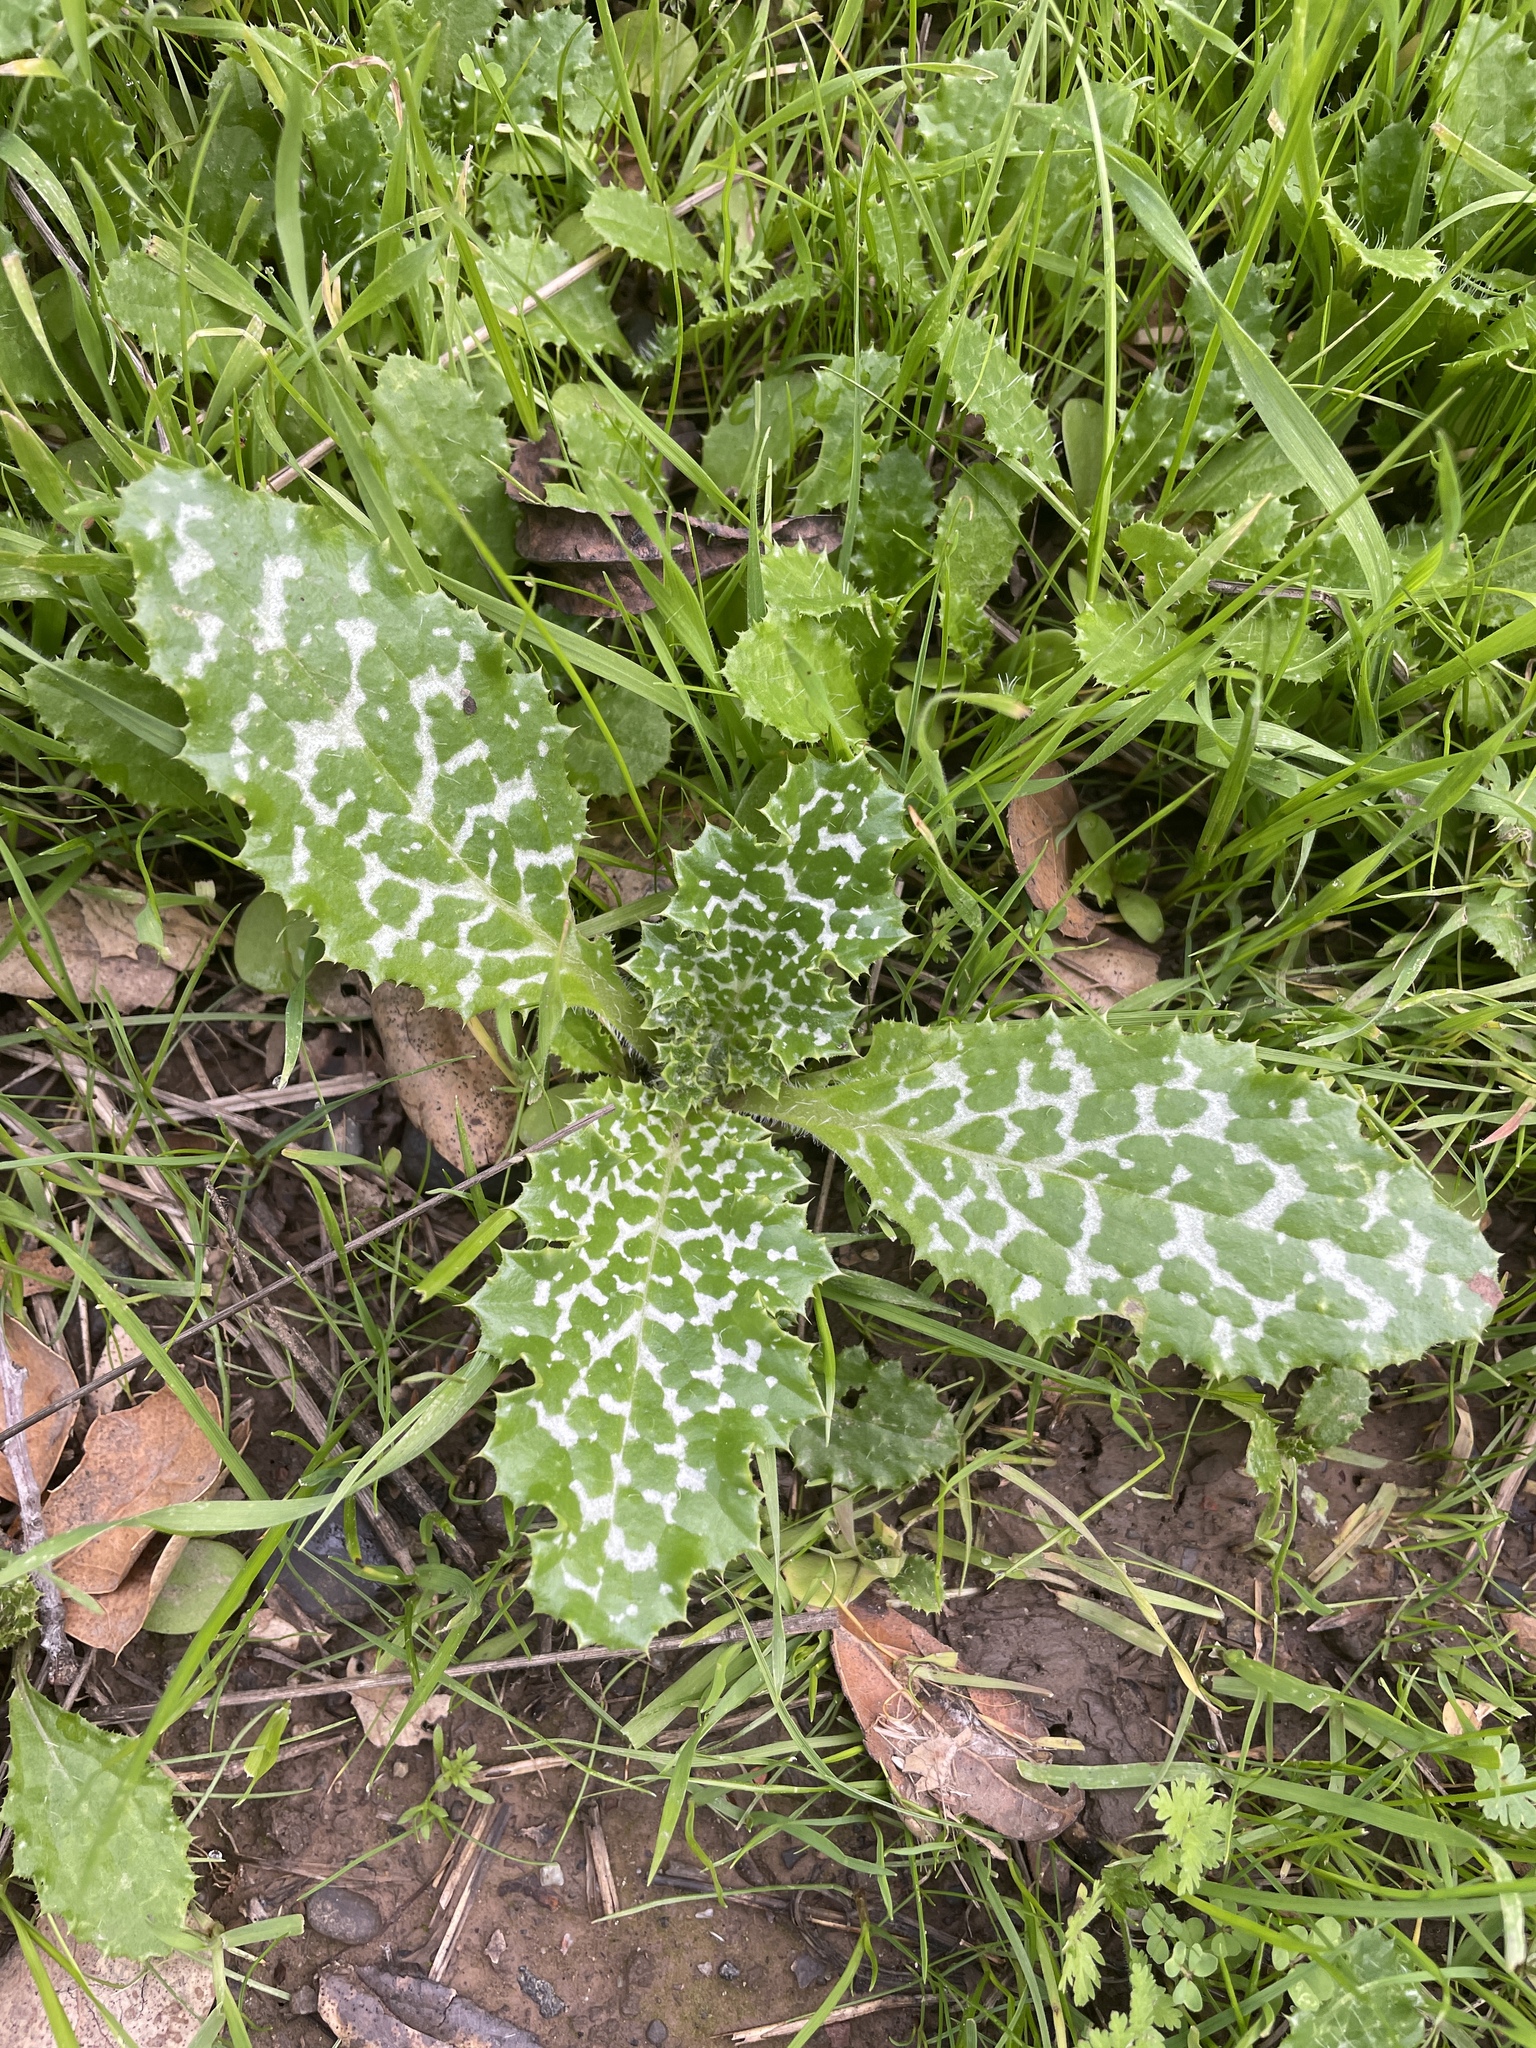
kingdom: Plantae
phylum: Tracheophyta
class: Magnoliopsida
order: Asterales
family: Asteraceae
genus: Silybum
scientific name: Silybum marianum
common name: Milk thistle
